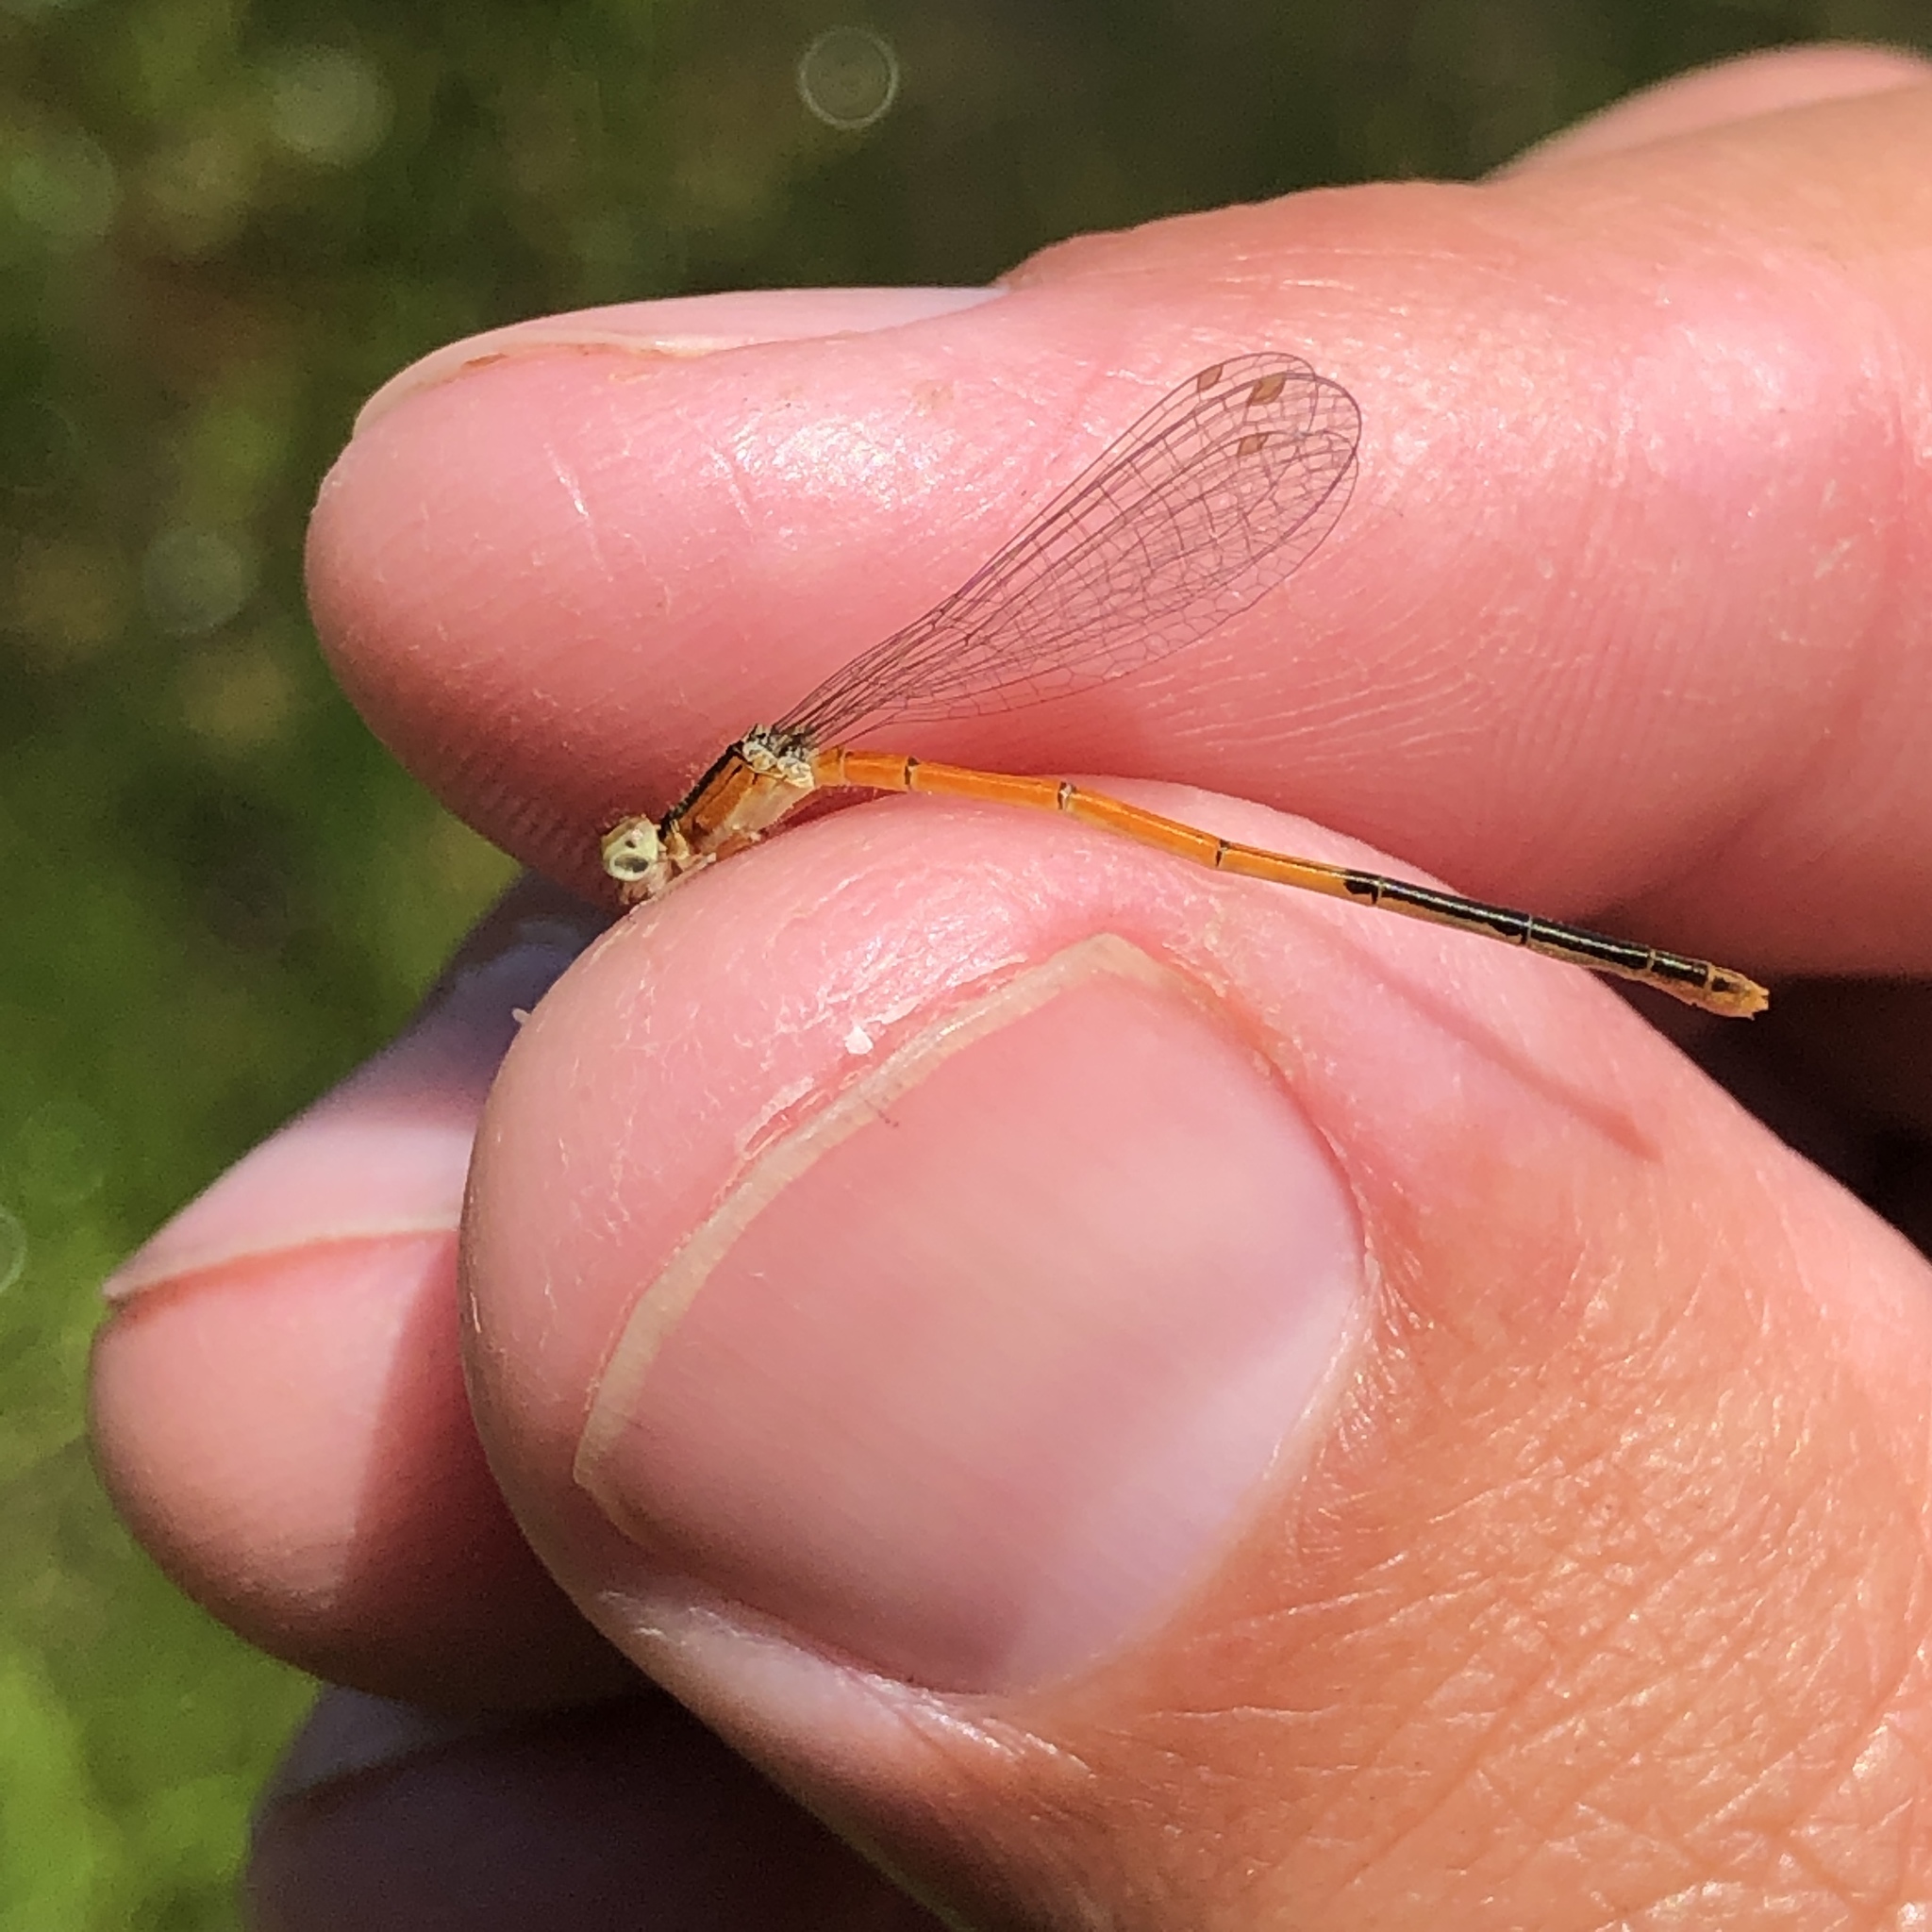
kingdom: Animalia
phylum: Arthropoda
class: Insecta
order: Odonata
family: Coenagrionidae
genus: Ischnura
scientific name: Ischnura hastata
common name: Citrine forktail
